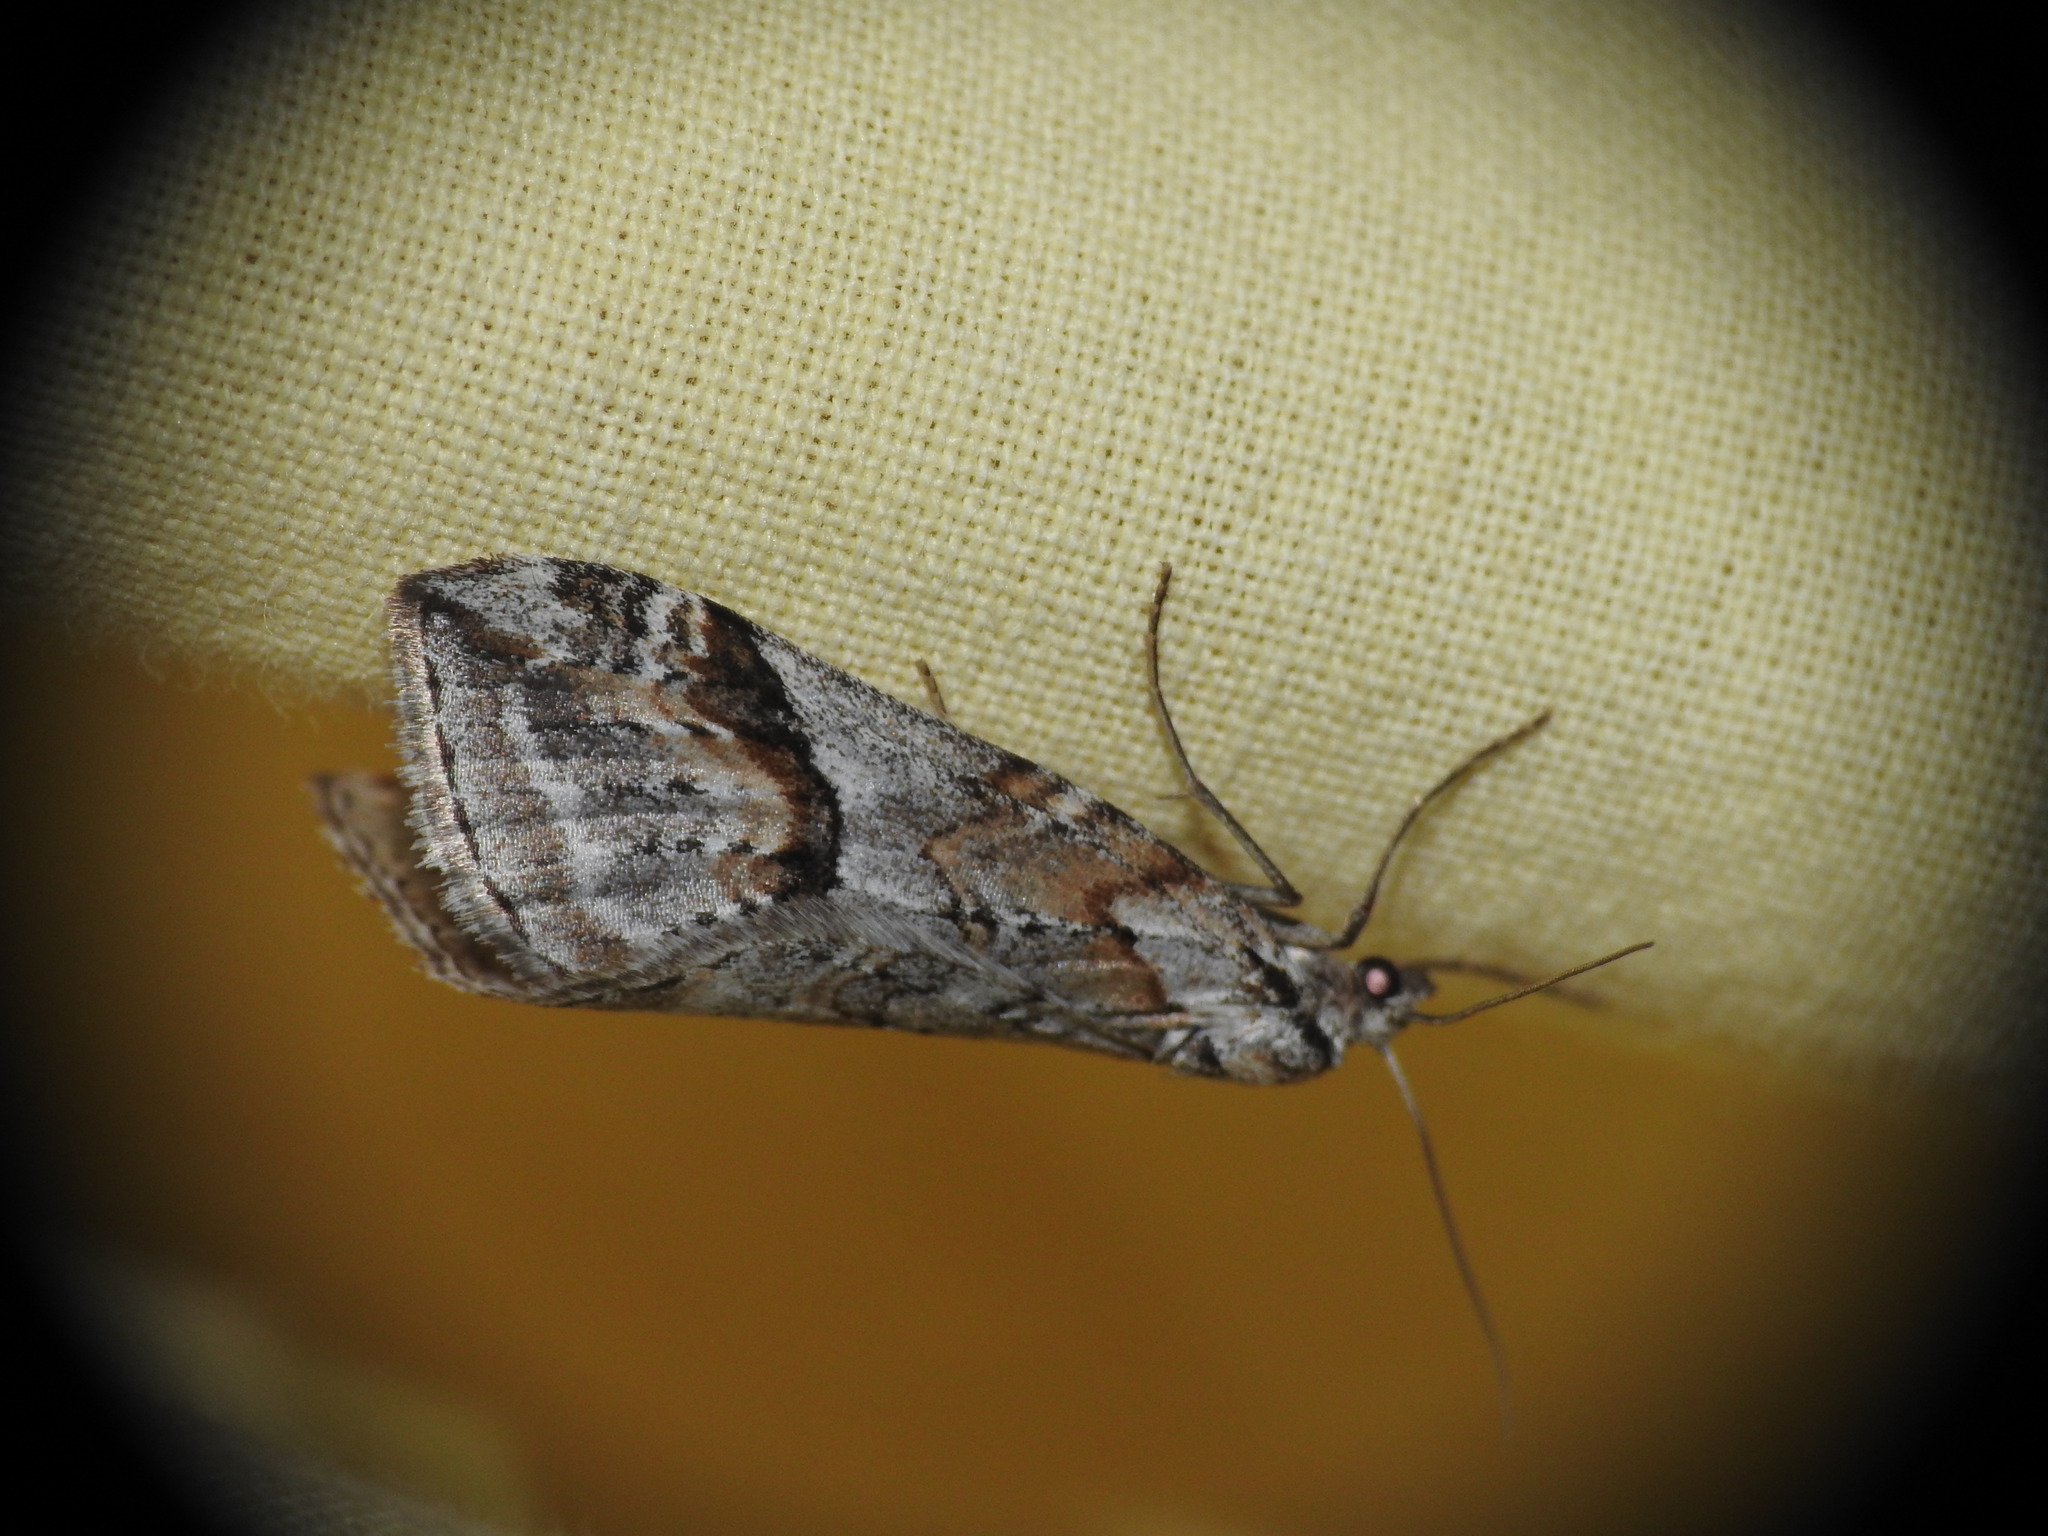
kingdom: Animalia
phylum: Arthropoda
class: Insecta
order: Lepidoptera
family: Geometridae
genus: Chesias
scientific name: Chesias rufata
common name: Broom-tip
